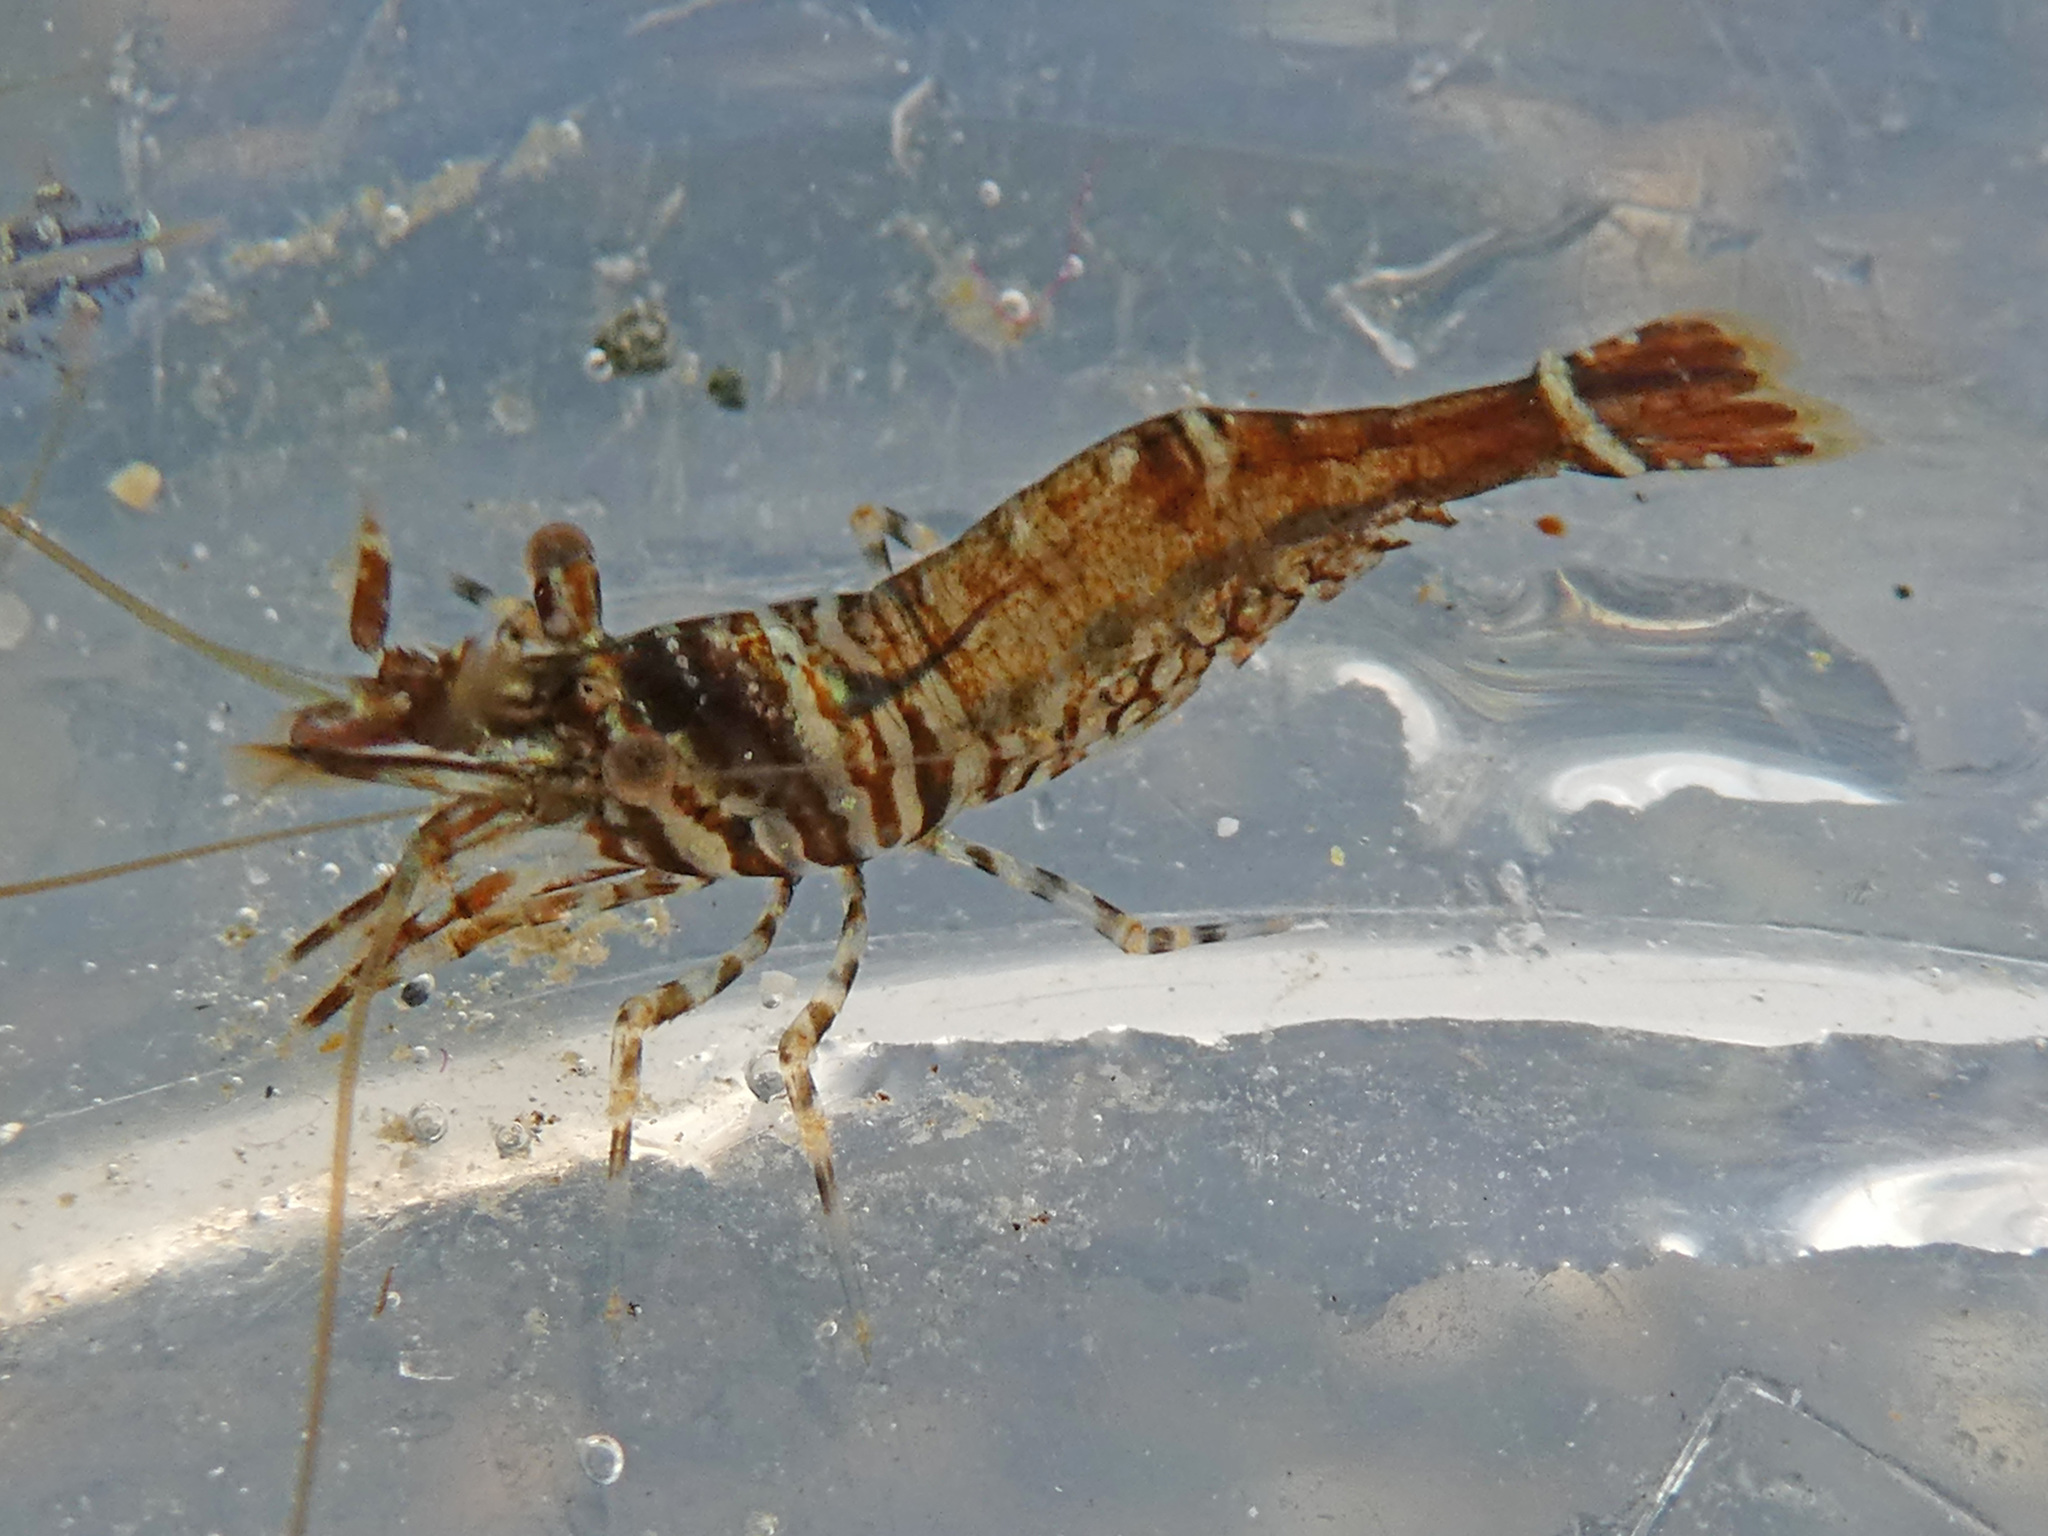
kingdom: Animalia
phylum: Arthropoda
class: Malacostraca
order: Decapoda
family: Thoridae
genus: Heptacarpus
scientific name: Heptacarpus sitchensis
